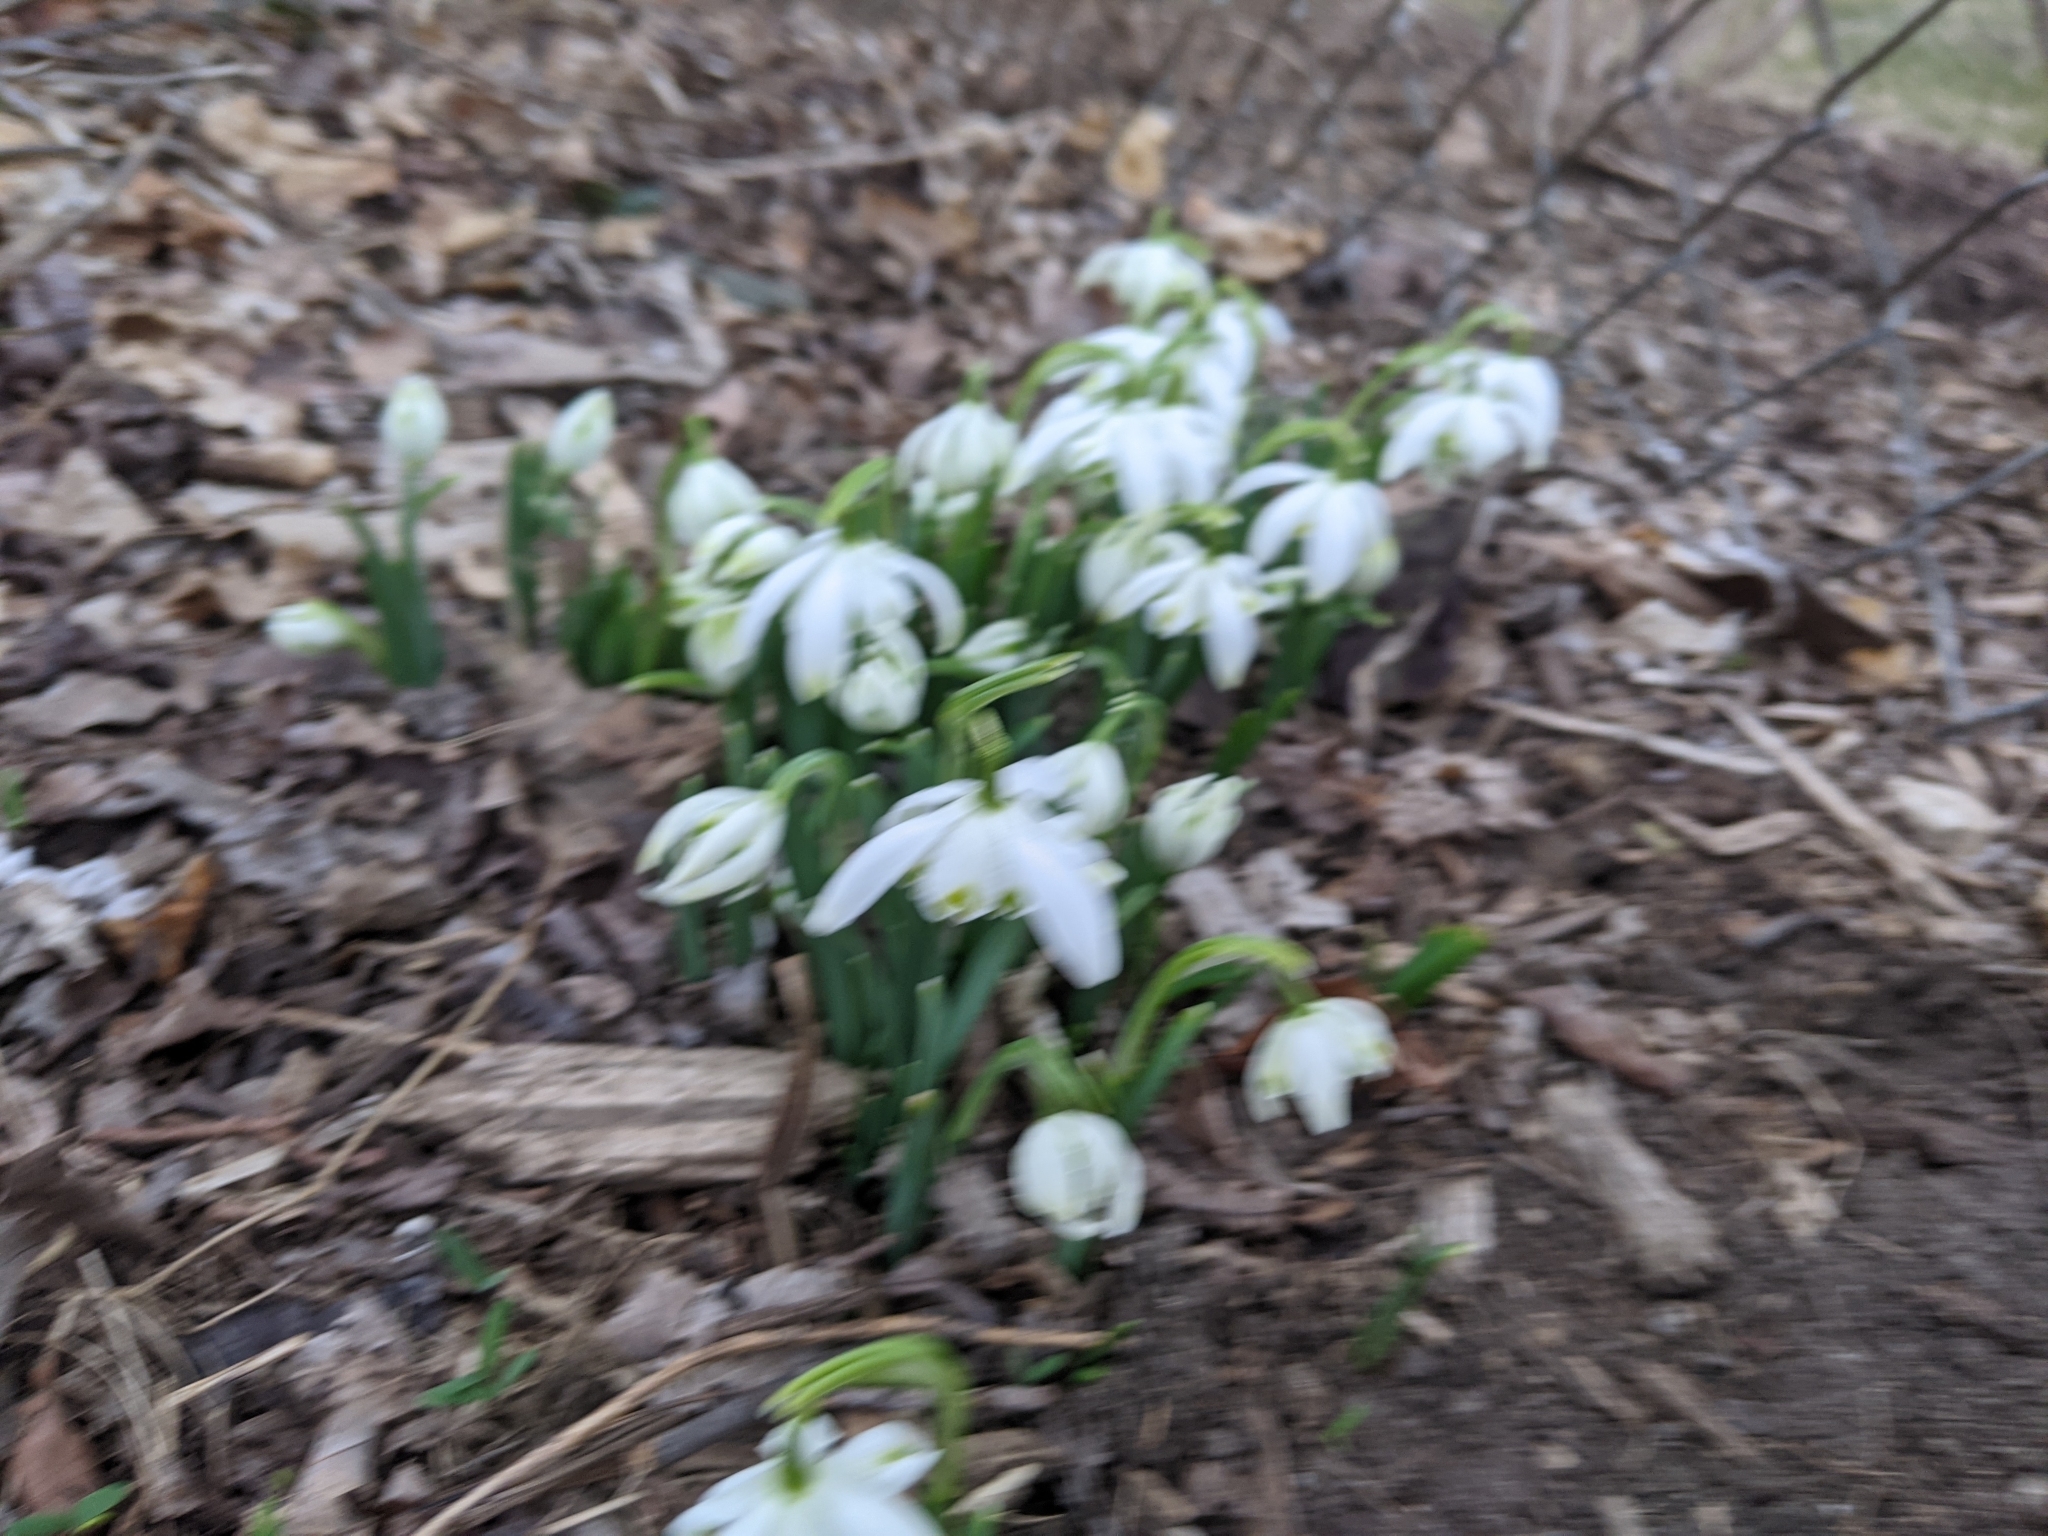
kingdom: Plantae
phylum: Tracheophyta
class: Liliopsida
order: Asparagales
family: Amaryllidaceae
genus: Galanthus
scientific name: Galanthus nivalis
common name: Snowdrop
